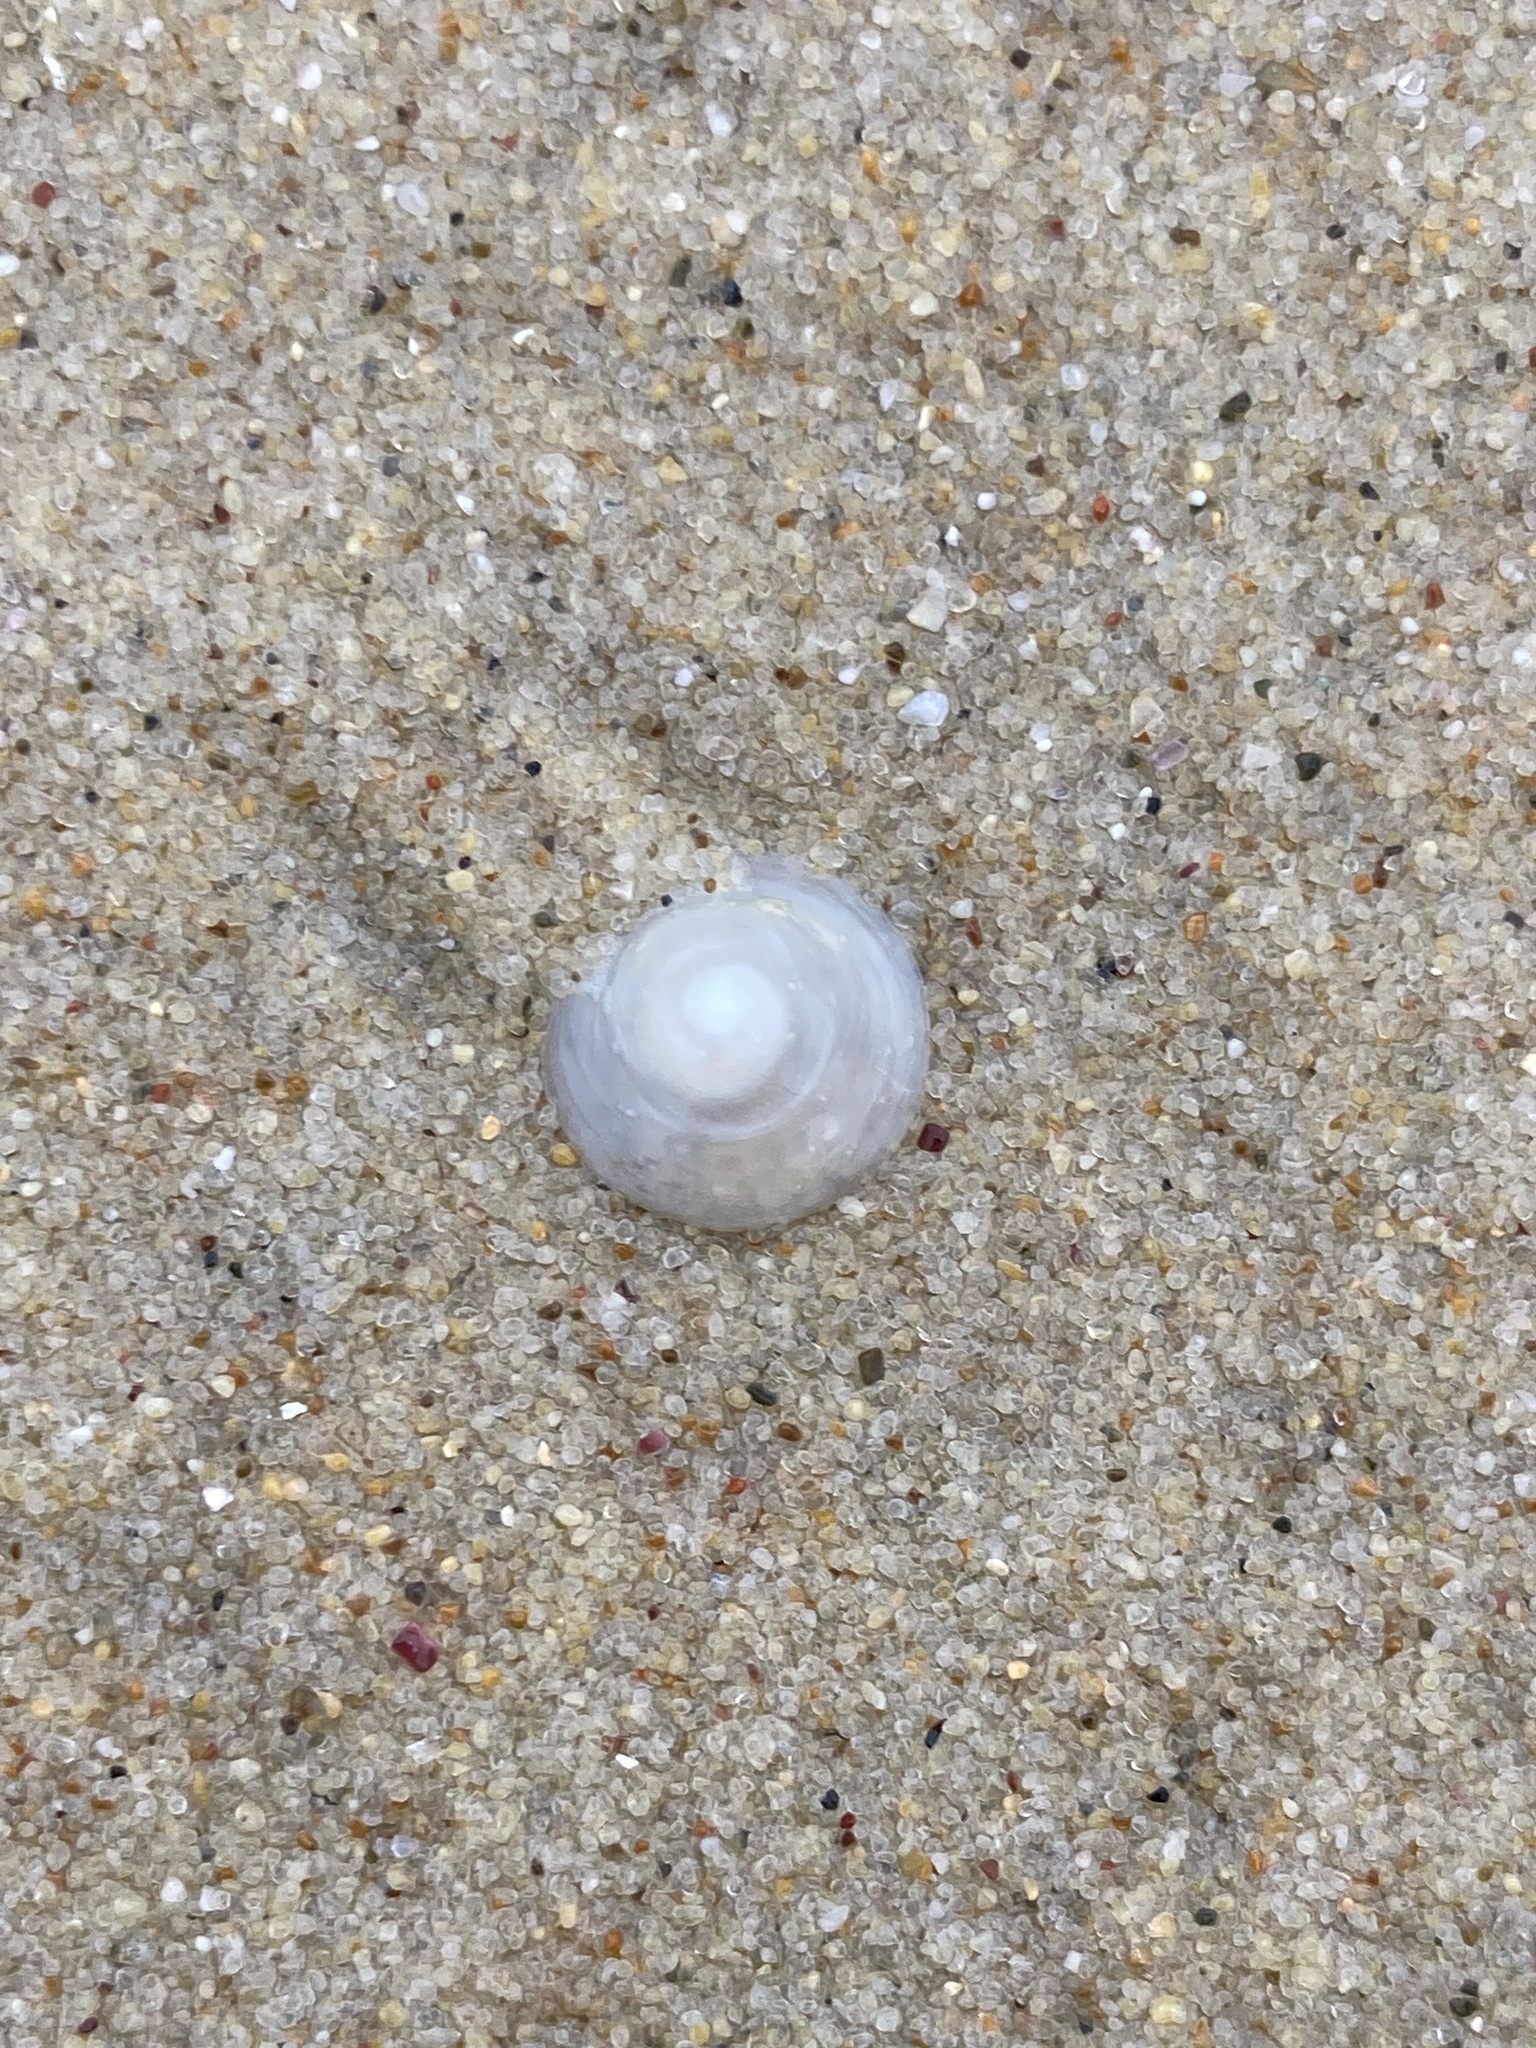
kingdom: Animalia
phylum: Mollusca
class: Gastropoda
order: Littorinimorpha
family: Calyptraeidae
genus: Sigapatella
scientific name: Sigapatella hedleyi
